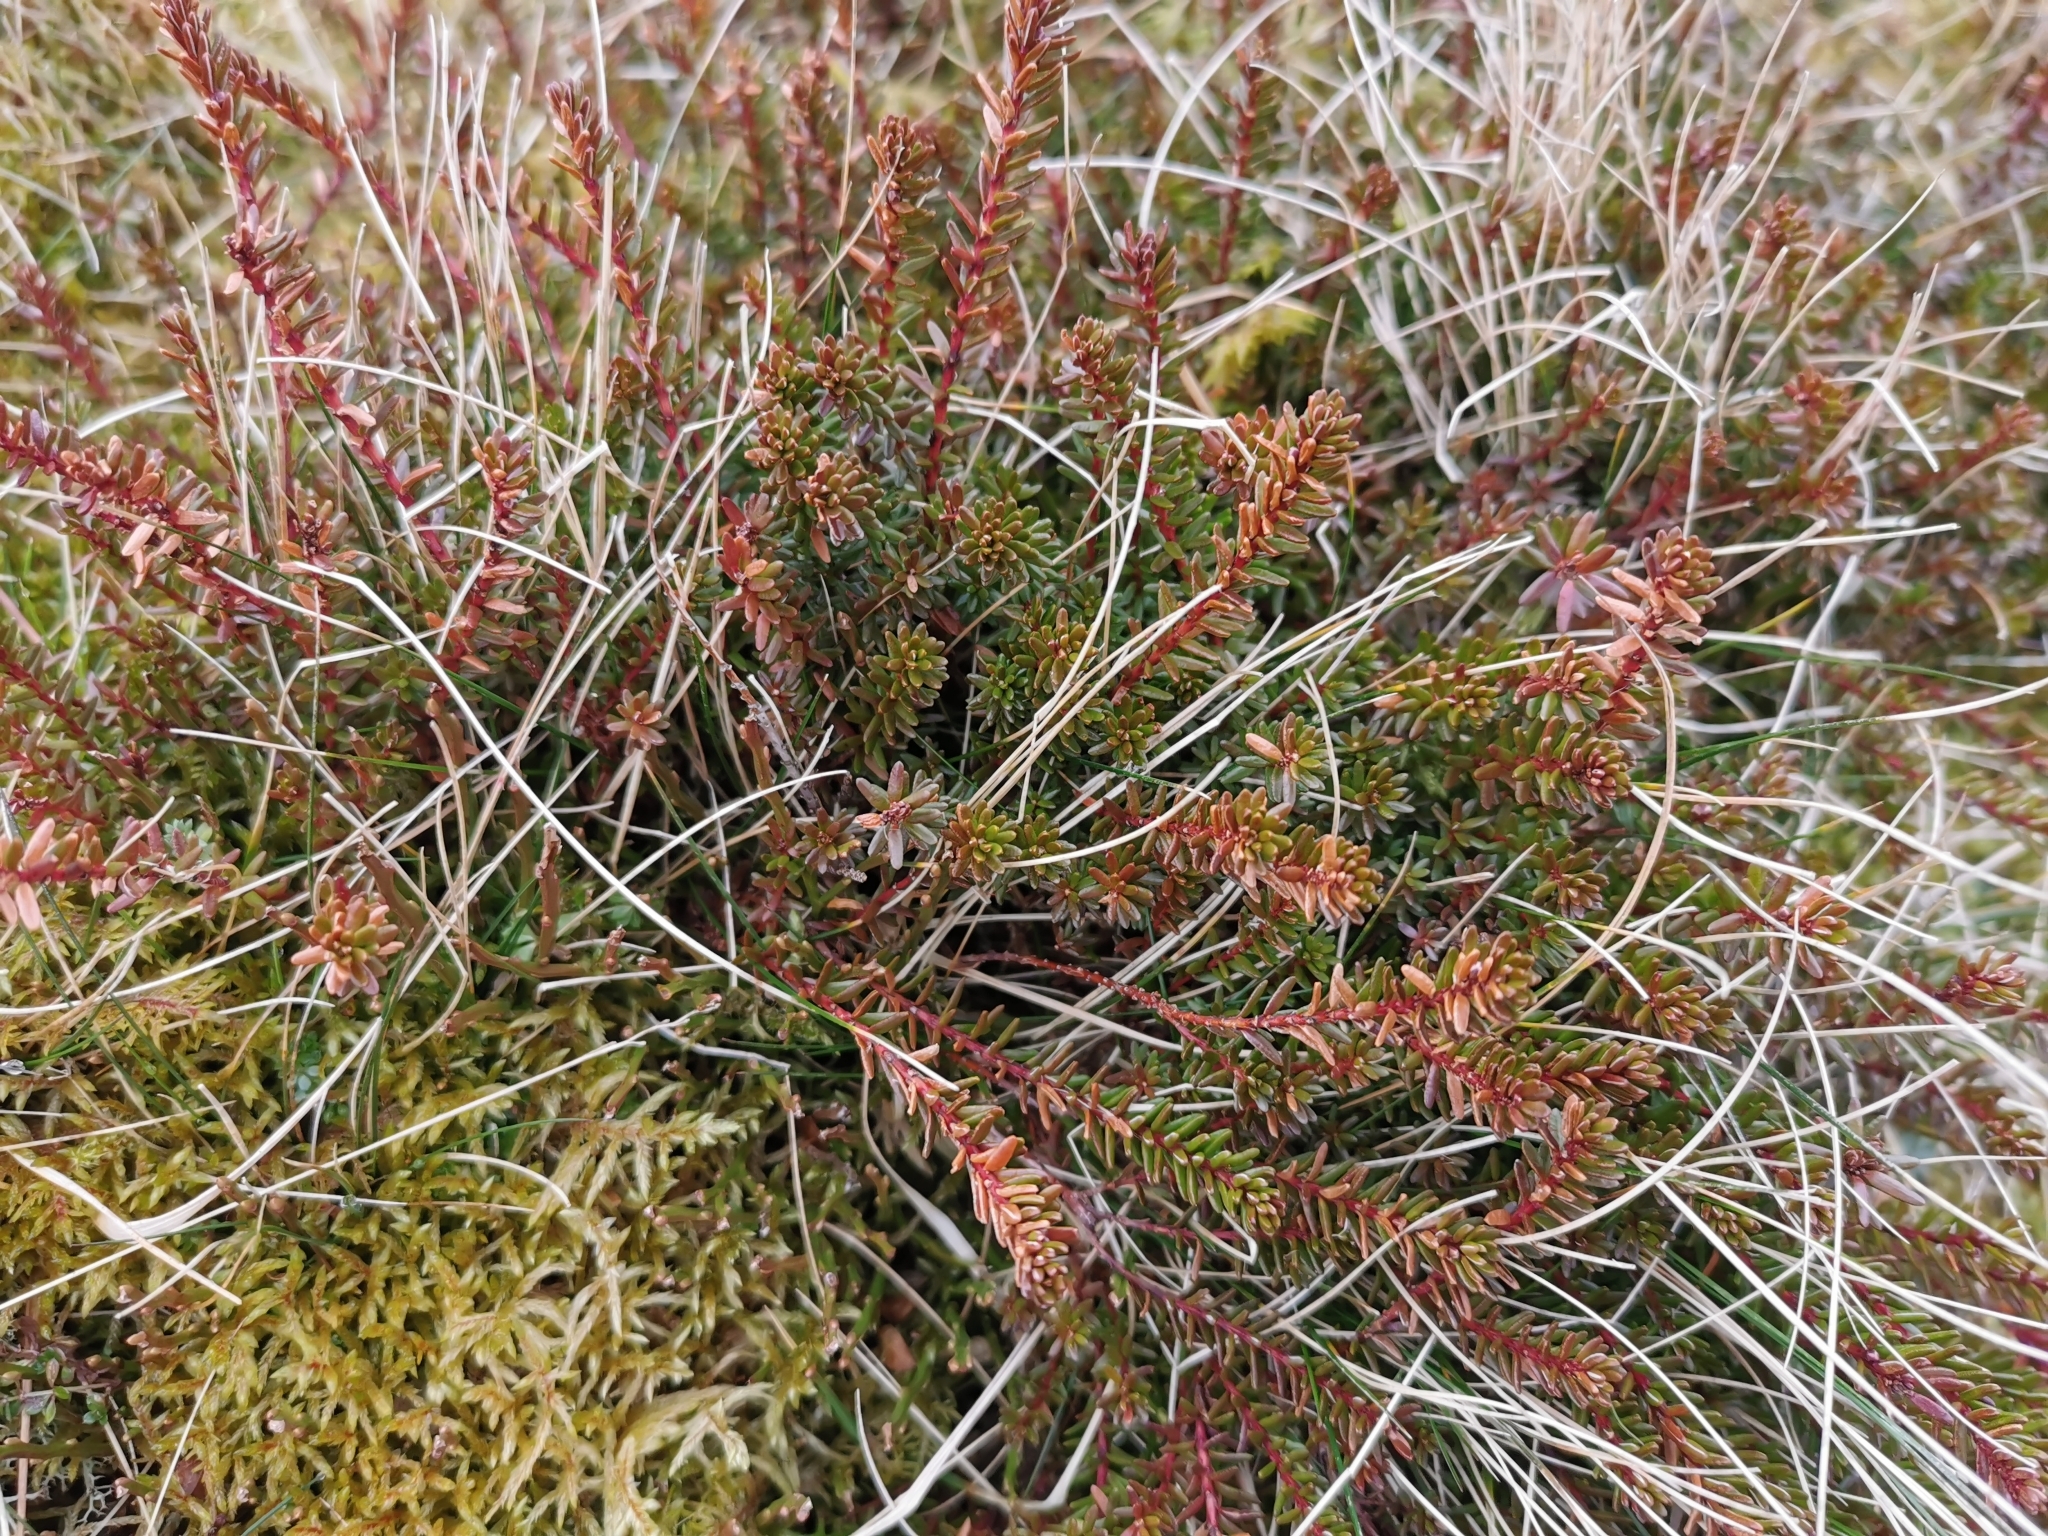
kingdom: Plantae
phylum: Tracheophyta
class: Magnoliopsida
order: Ericales
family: Ericaceae
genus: Empetrum
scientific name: Empetrum nigrum
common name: Black crowberry
